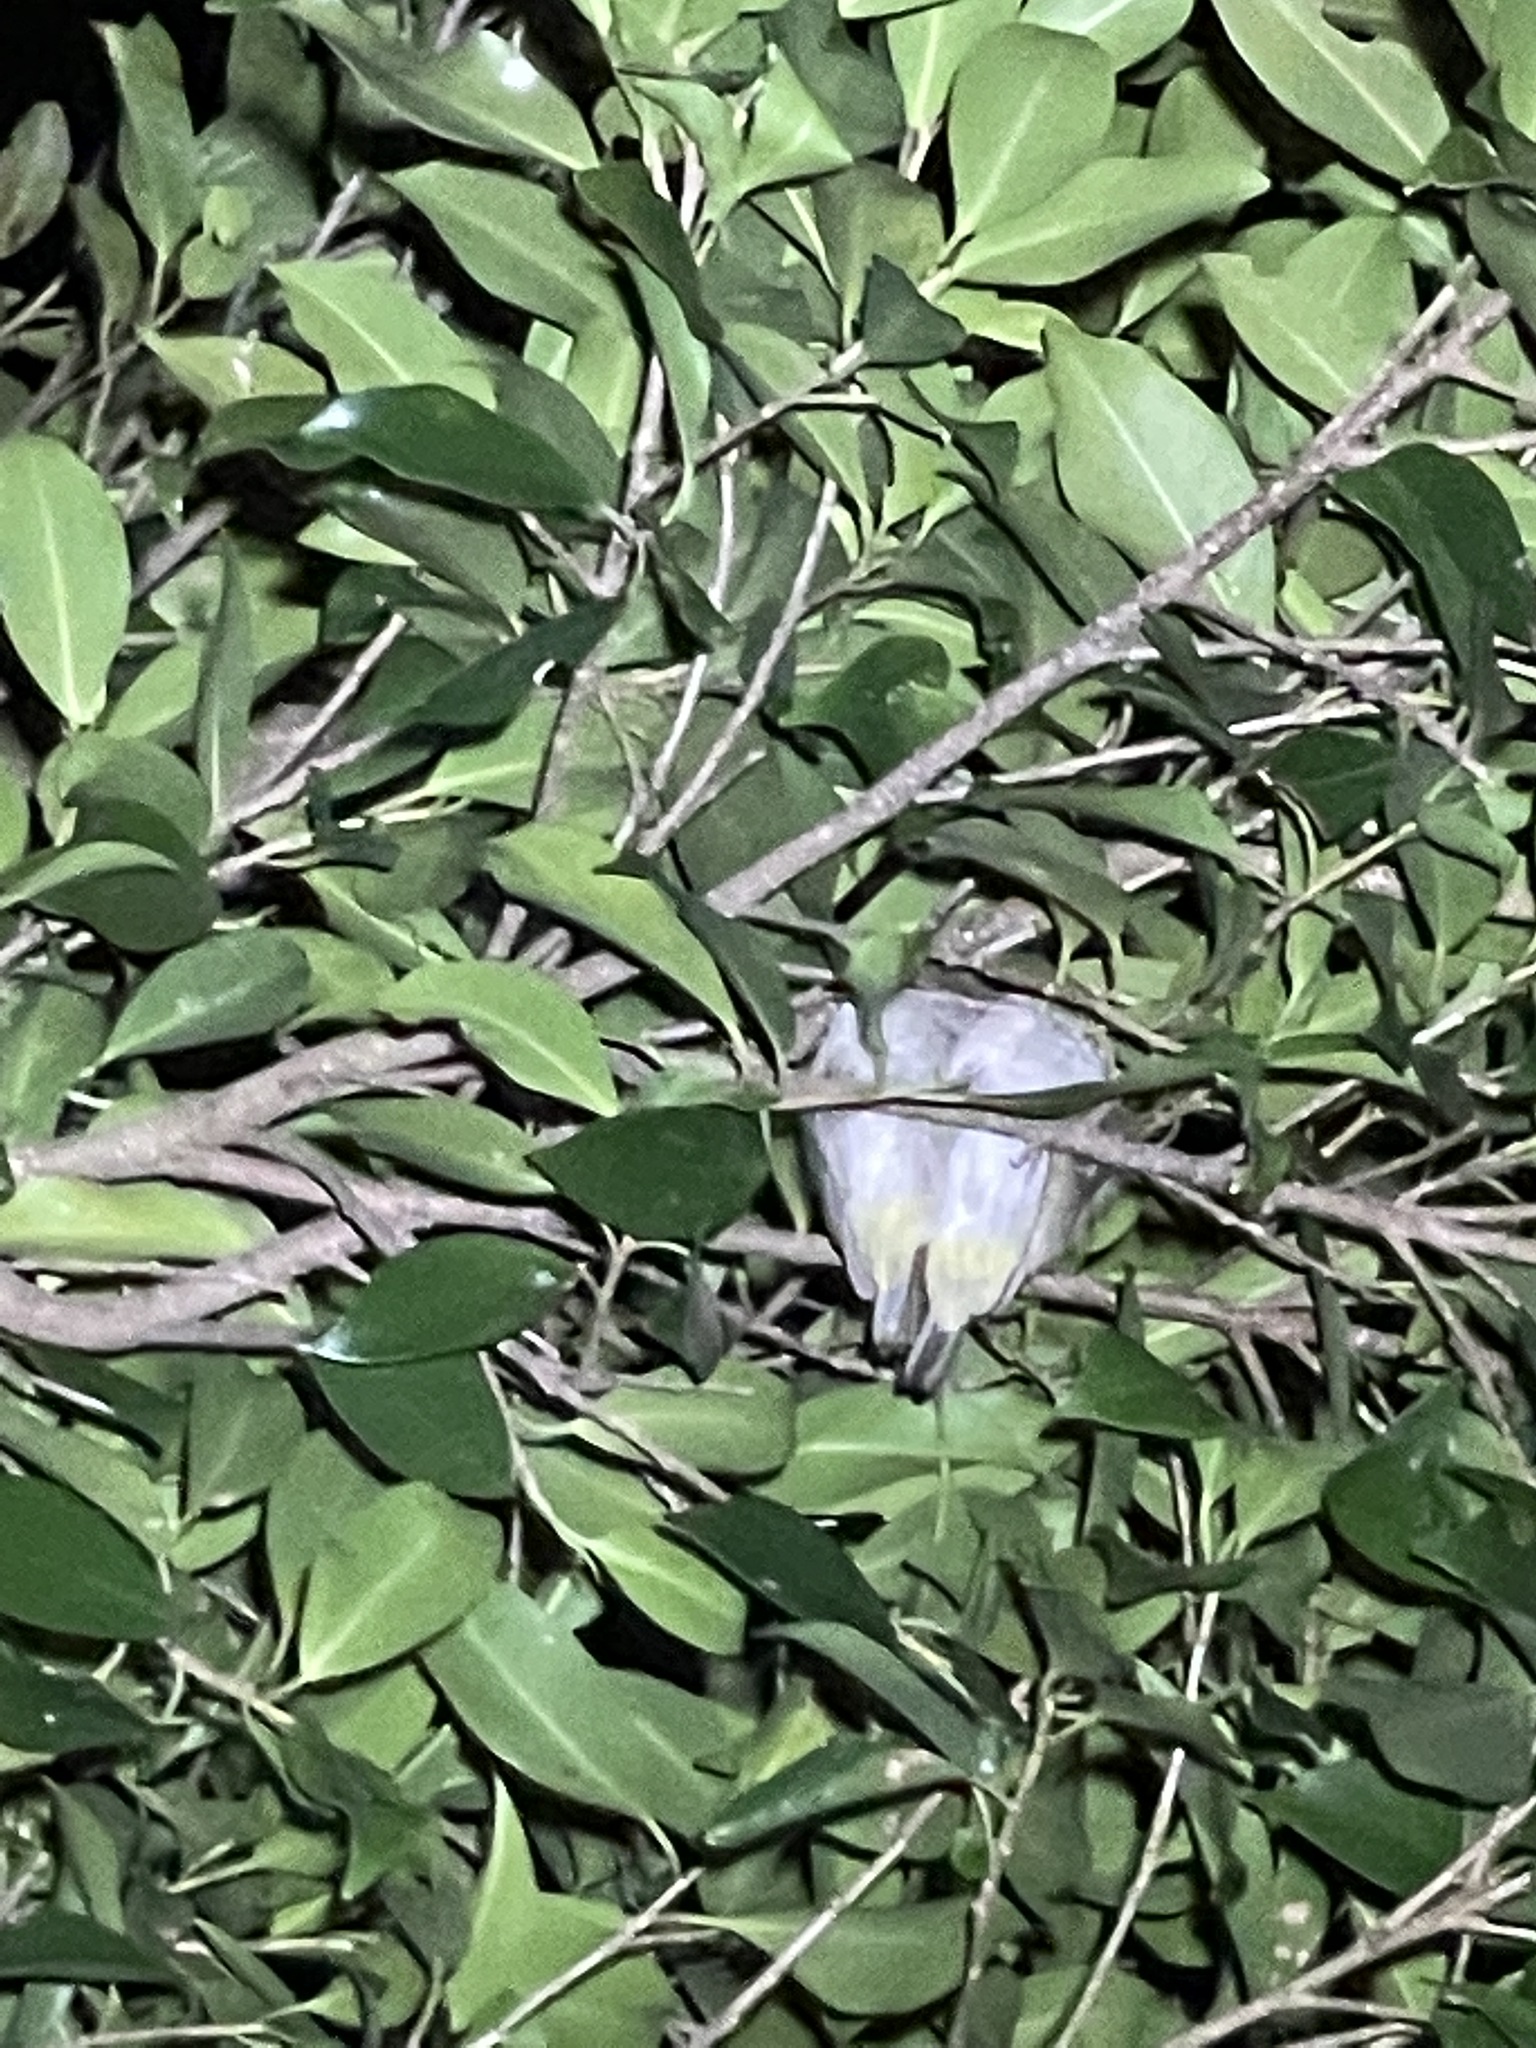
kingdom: Animalia
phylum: Chordata
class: Aves
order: Passeriformes
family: Zosteropidae
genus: Zosterops
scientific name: Zosterops simplex
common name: Swinhoe's white-eye
